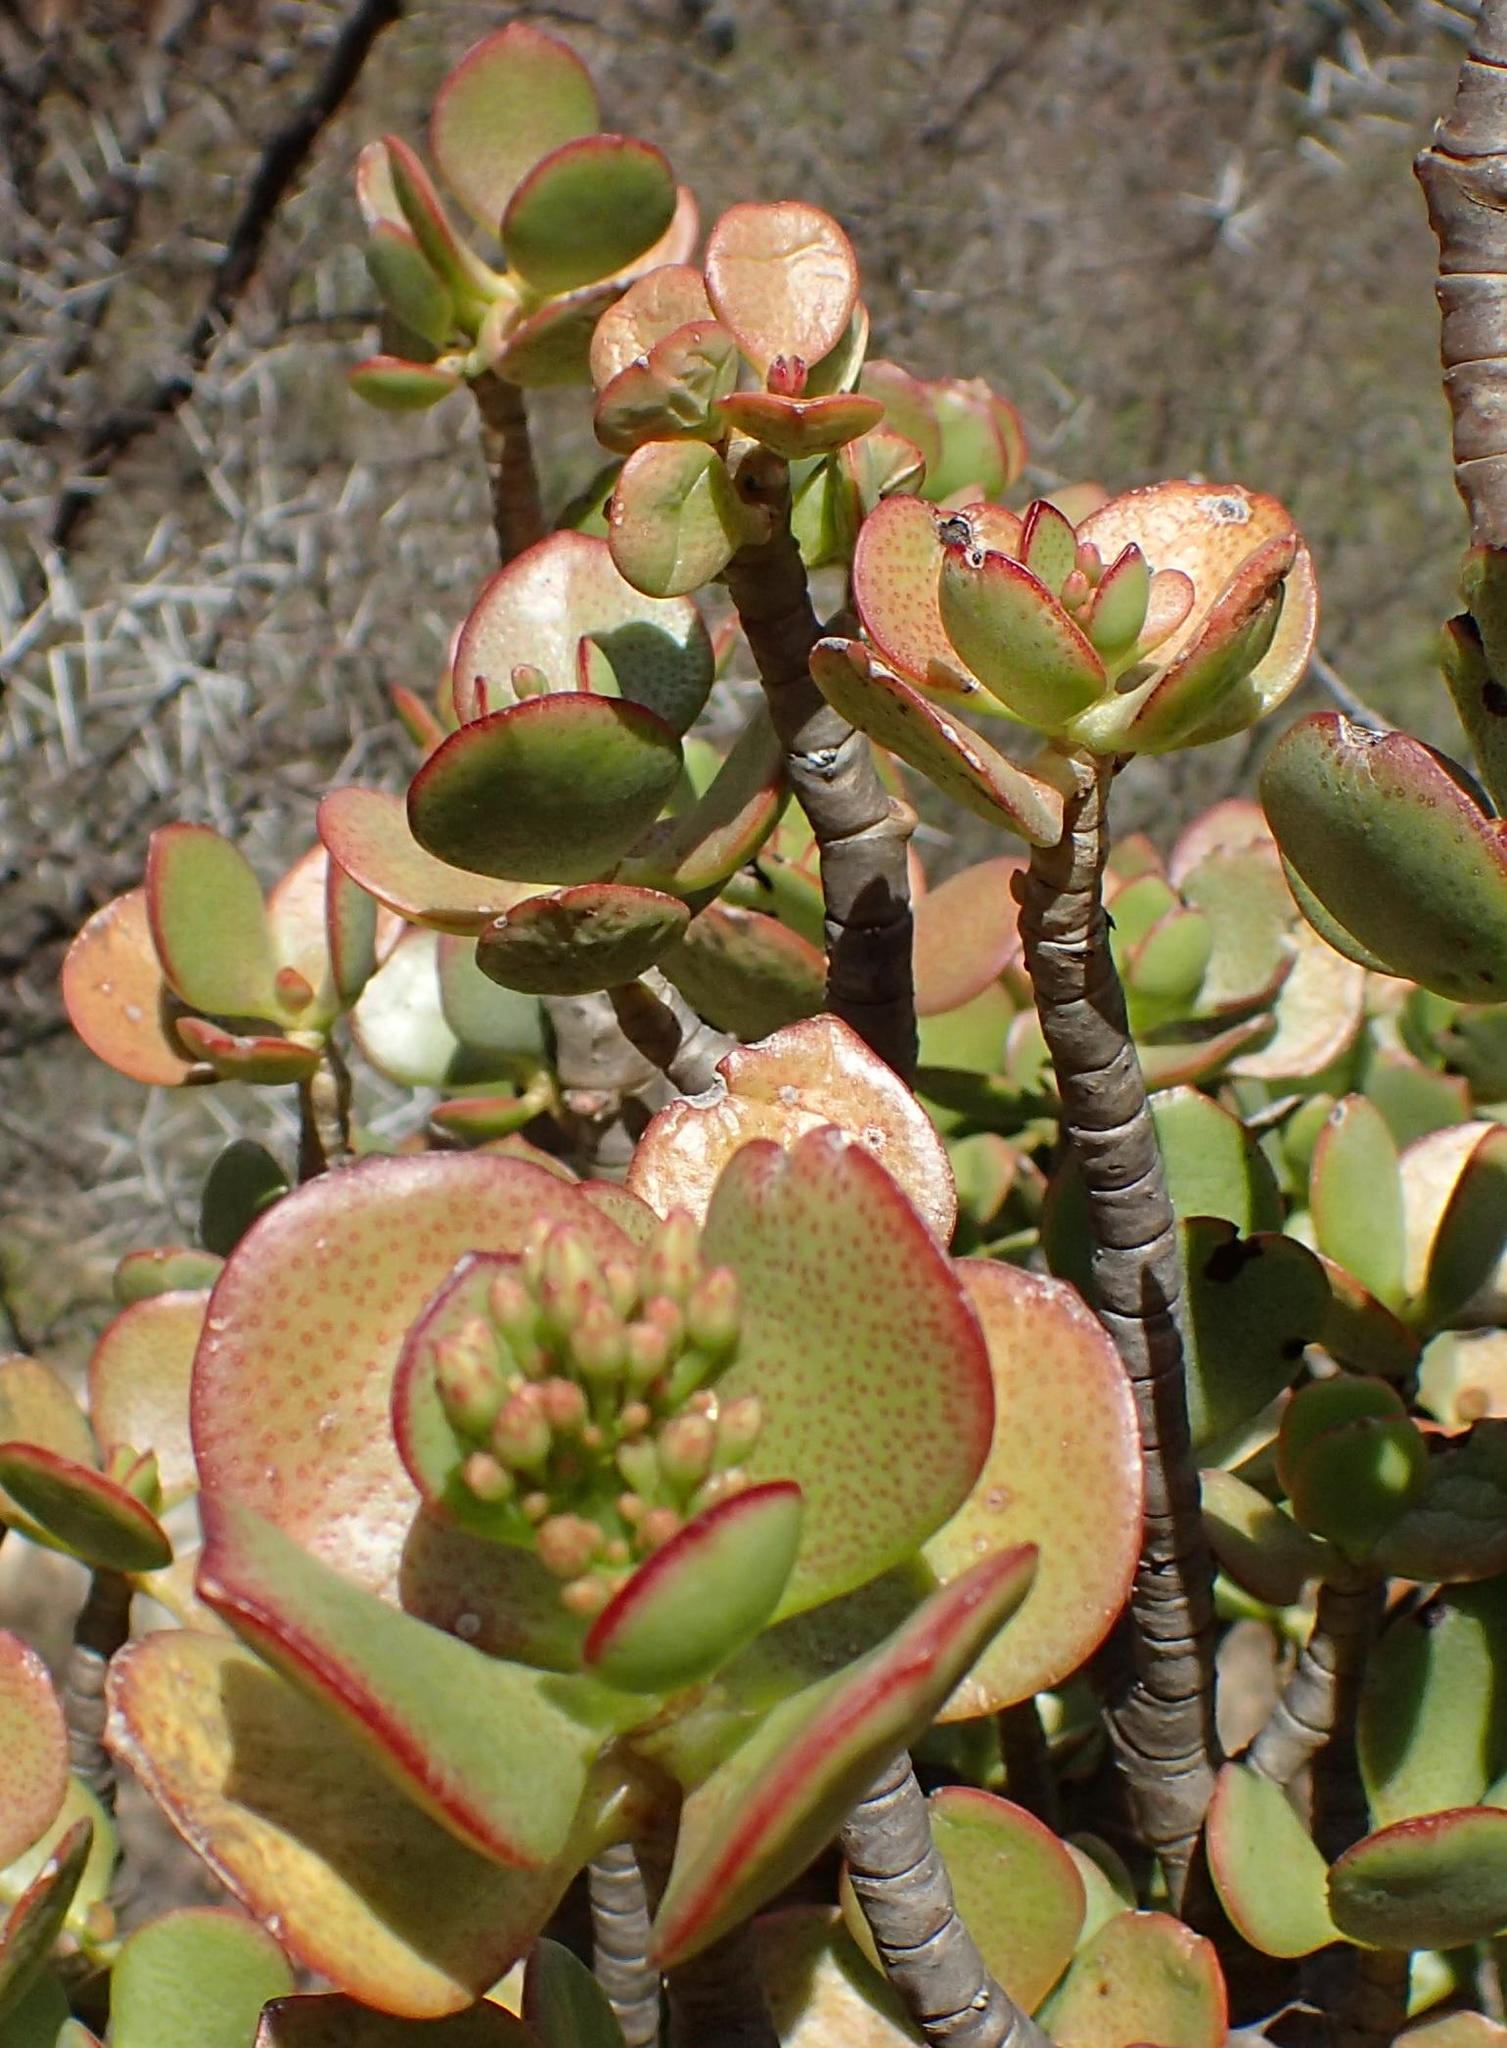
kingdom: Plantae
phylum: Tracheophyta
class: Magnoliopsida
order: Saxifragales
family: Crassulaceae
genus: Crassula
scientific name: Crassula ovata
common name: Jade plant
